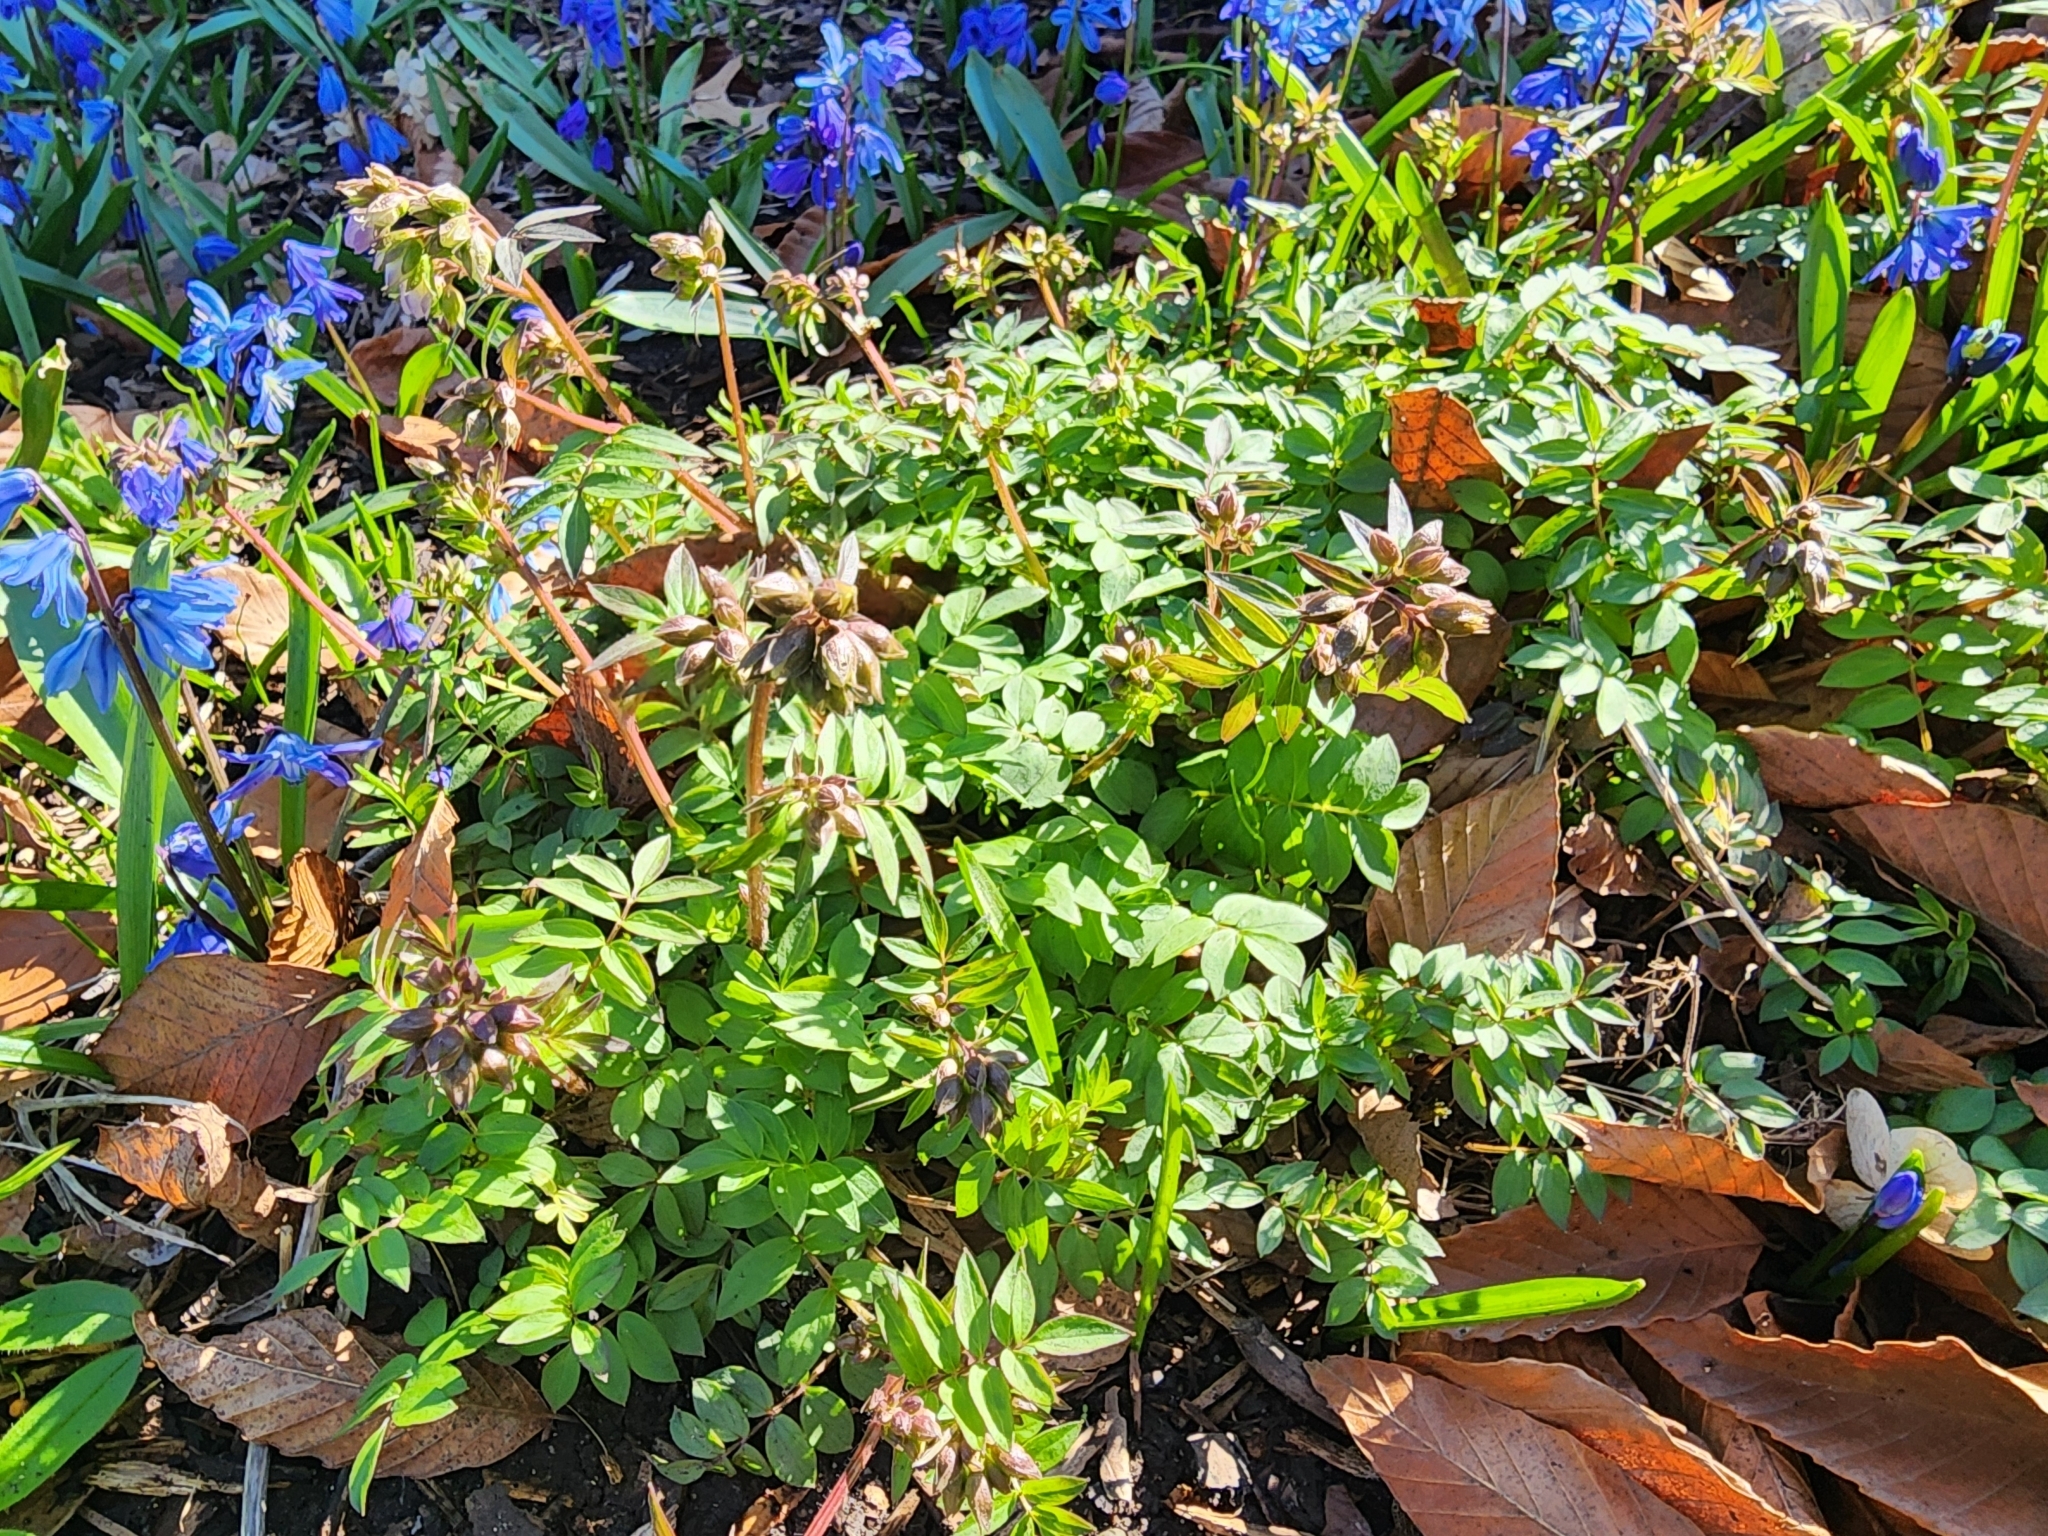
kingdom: Plantae
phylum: Tracheophyta
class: Magnoliopsida
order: Ericales
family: Polemoniaceae
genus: Polemonium
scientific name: Polemonium reptans
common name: Creeping jacob's-ladder
